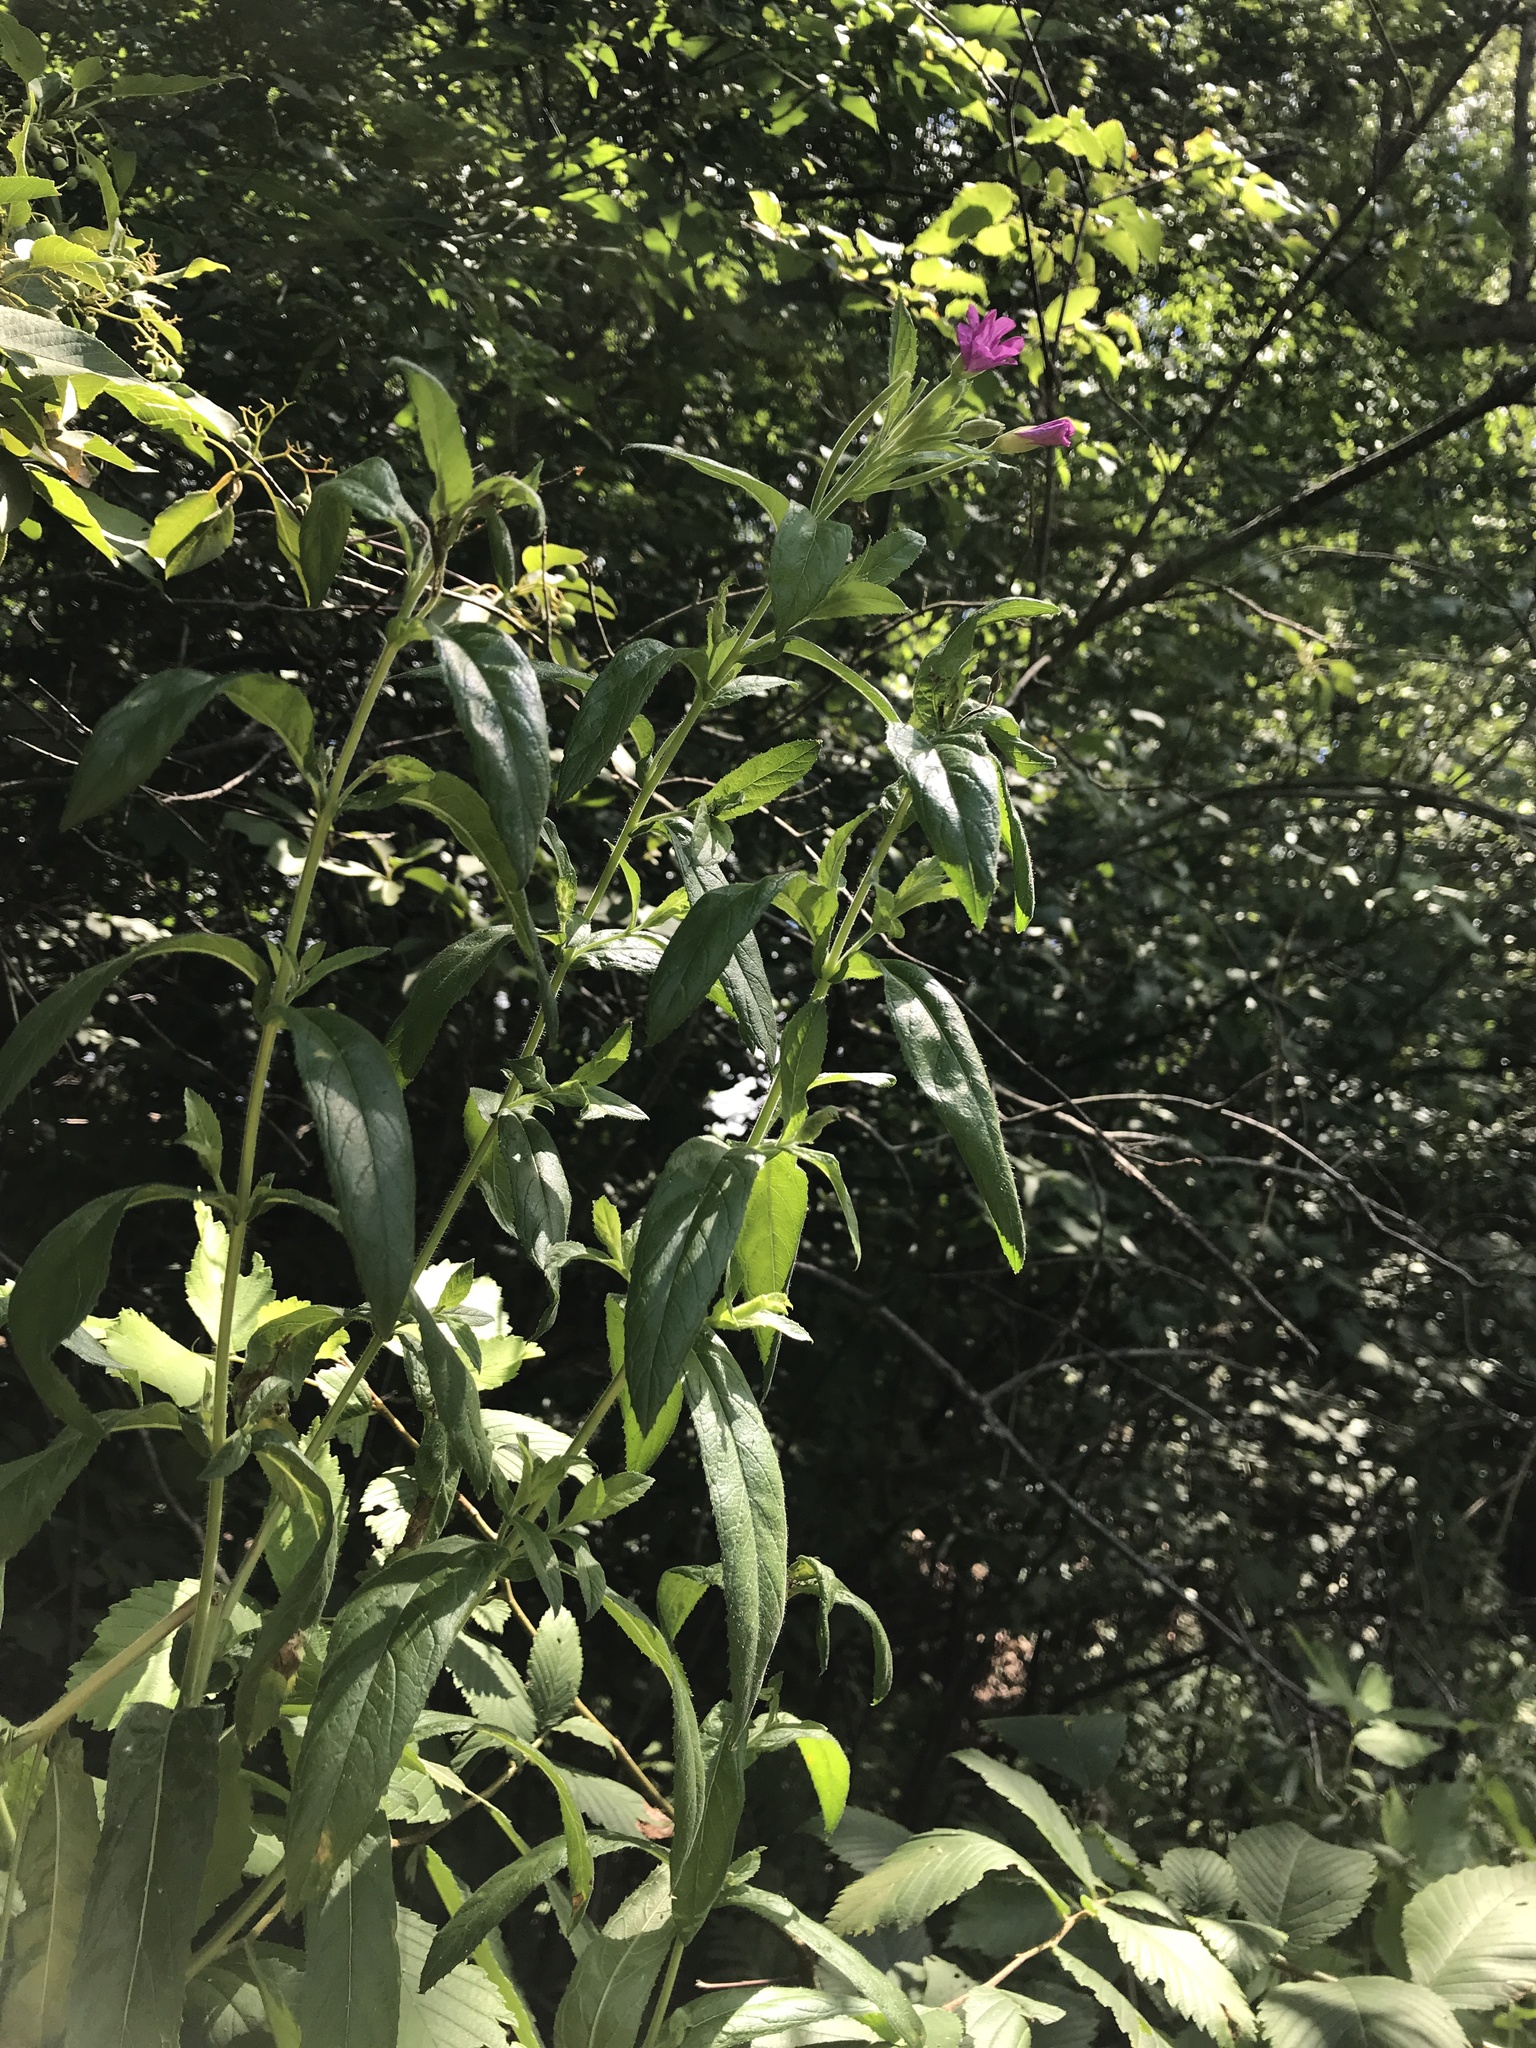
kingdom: Plantae
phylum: Tracheophyta
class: Magnoliopsida
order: Myrtales
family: Onagraceae
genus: Epilobium
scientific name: Epilobium hirsutum
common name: Great willowherb
